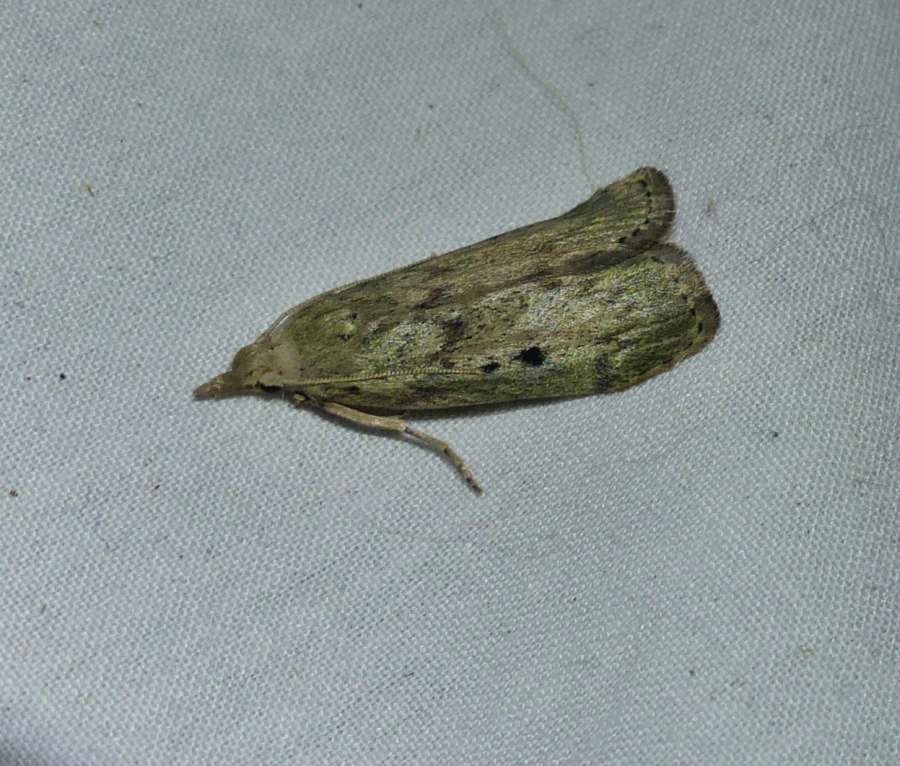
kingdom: Animalia
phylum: Arthropoda
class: Insecta
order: Lepidoptera
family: Pyralidae
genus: Aphomia
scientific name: Aphomia sociella
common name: Bee moth
